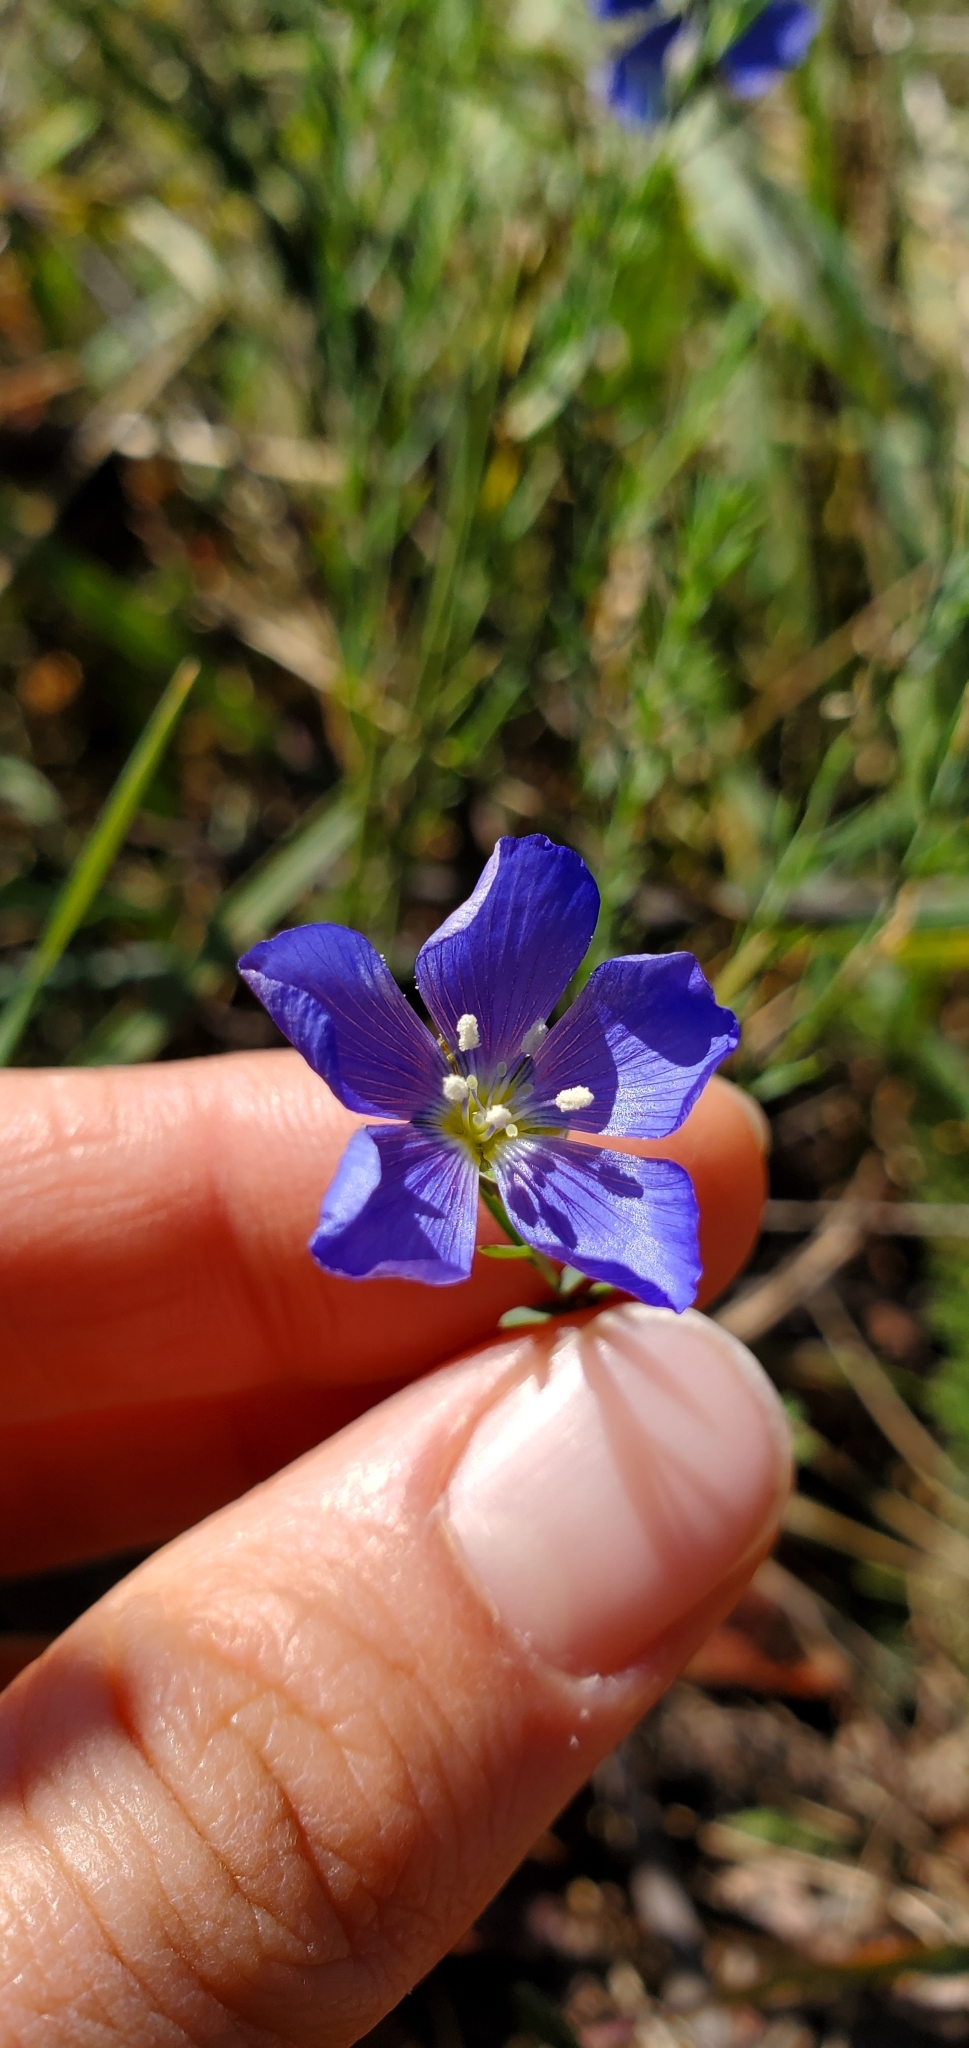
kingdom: Plantae
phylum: Tracheophyta
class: Magnoliopsida
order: Malpighiales
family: Linaceae
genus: Linum
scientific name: Linum lewisii
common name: Prairie flax
